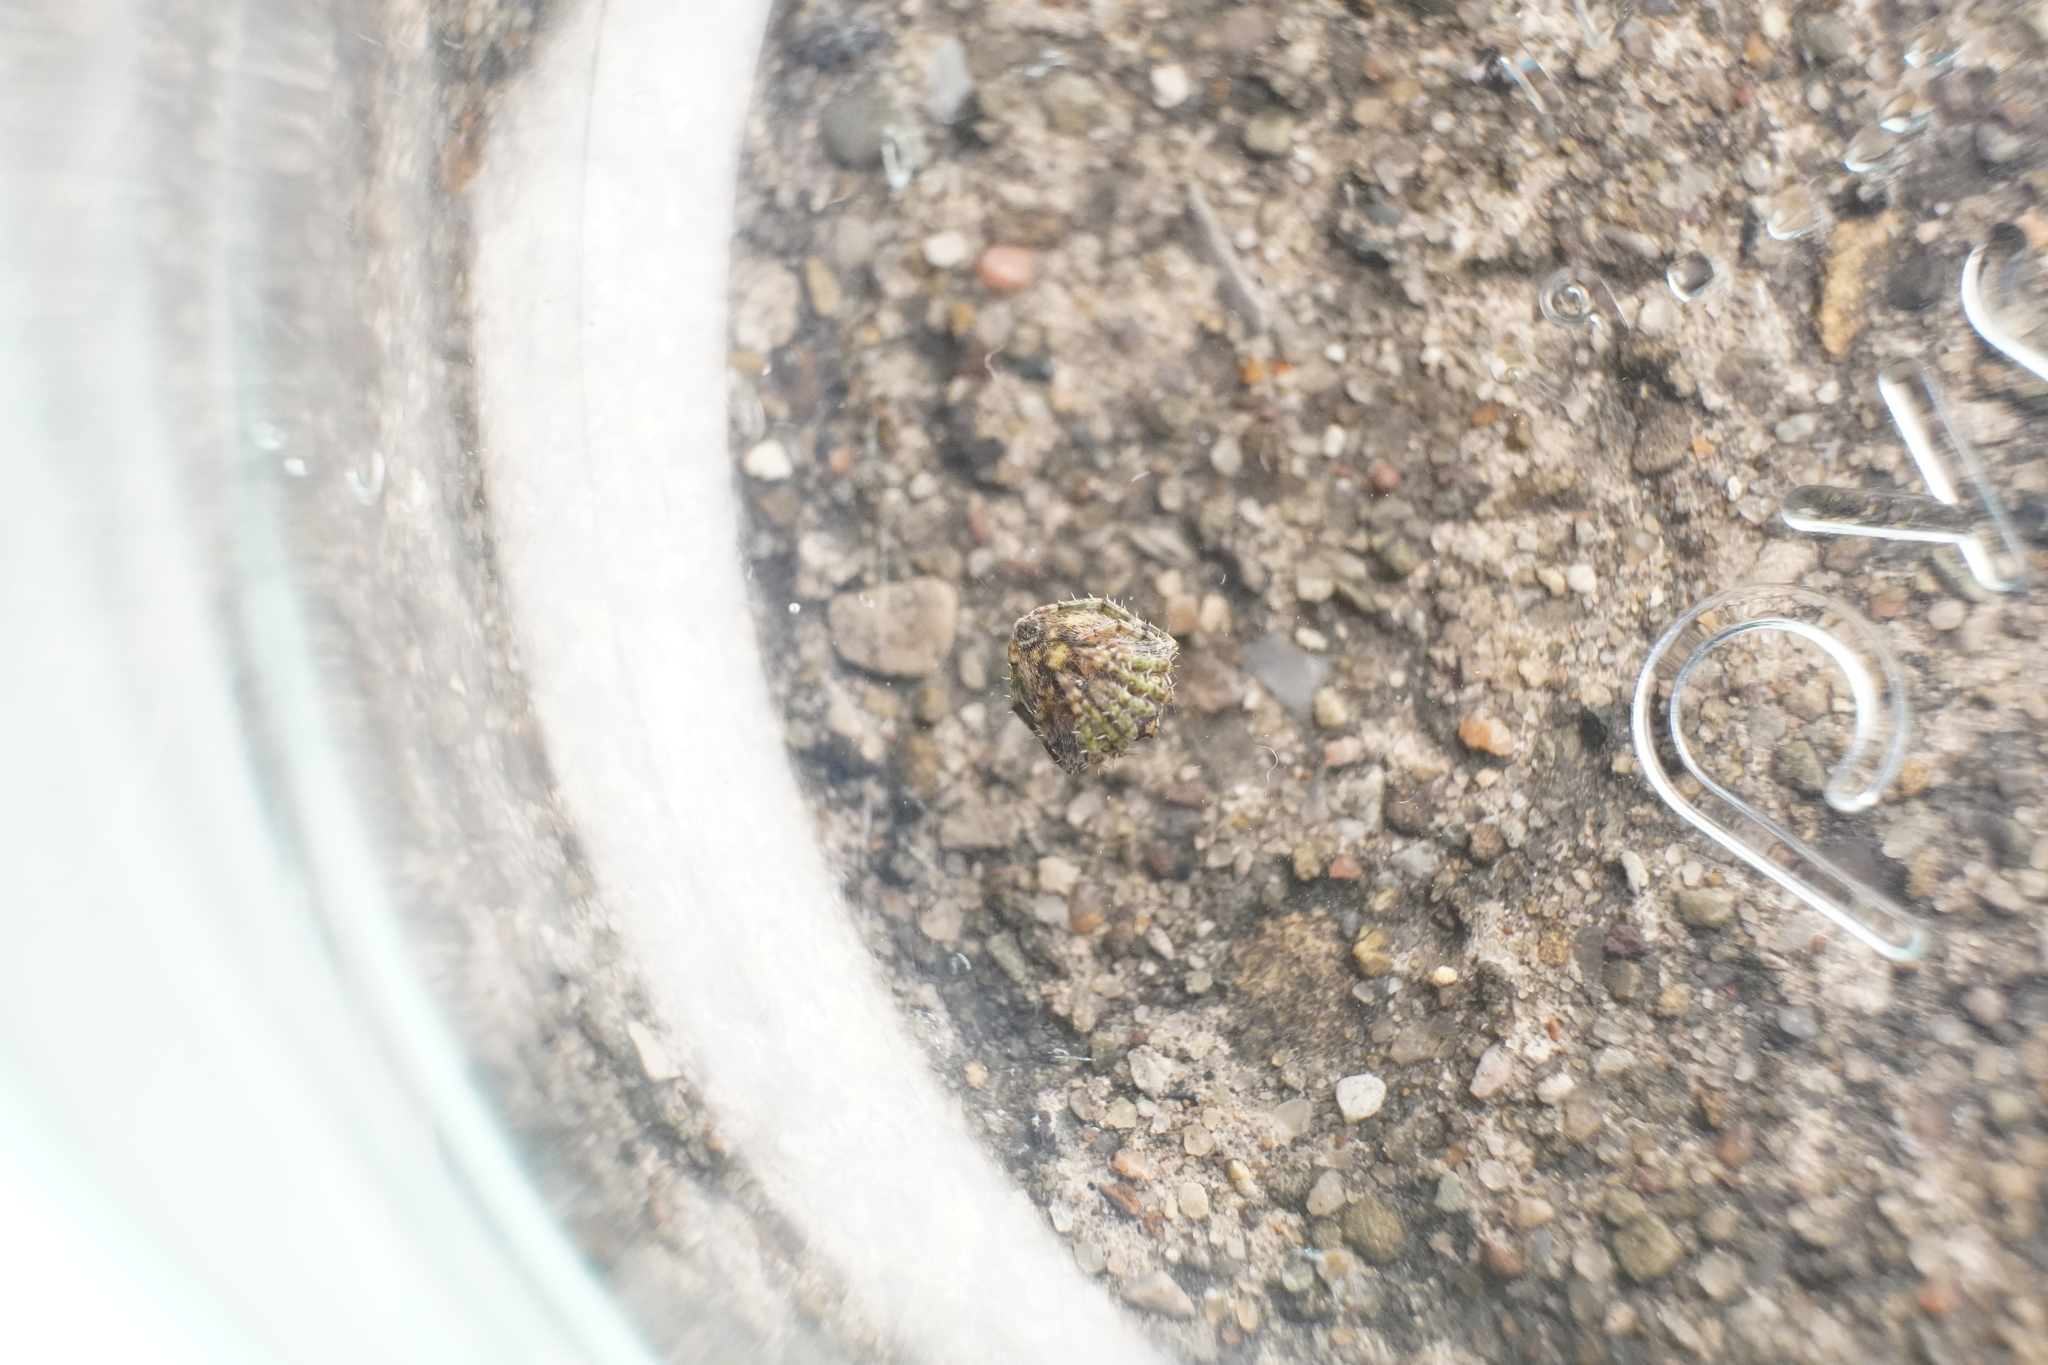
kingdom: Animalia
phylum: Arthropoda
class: Arachnida
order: Araneae
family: Araneidae
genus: Eustala
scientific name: Eustala
